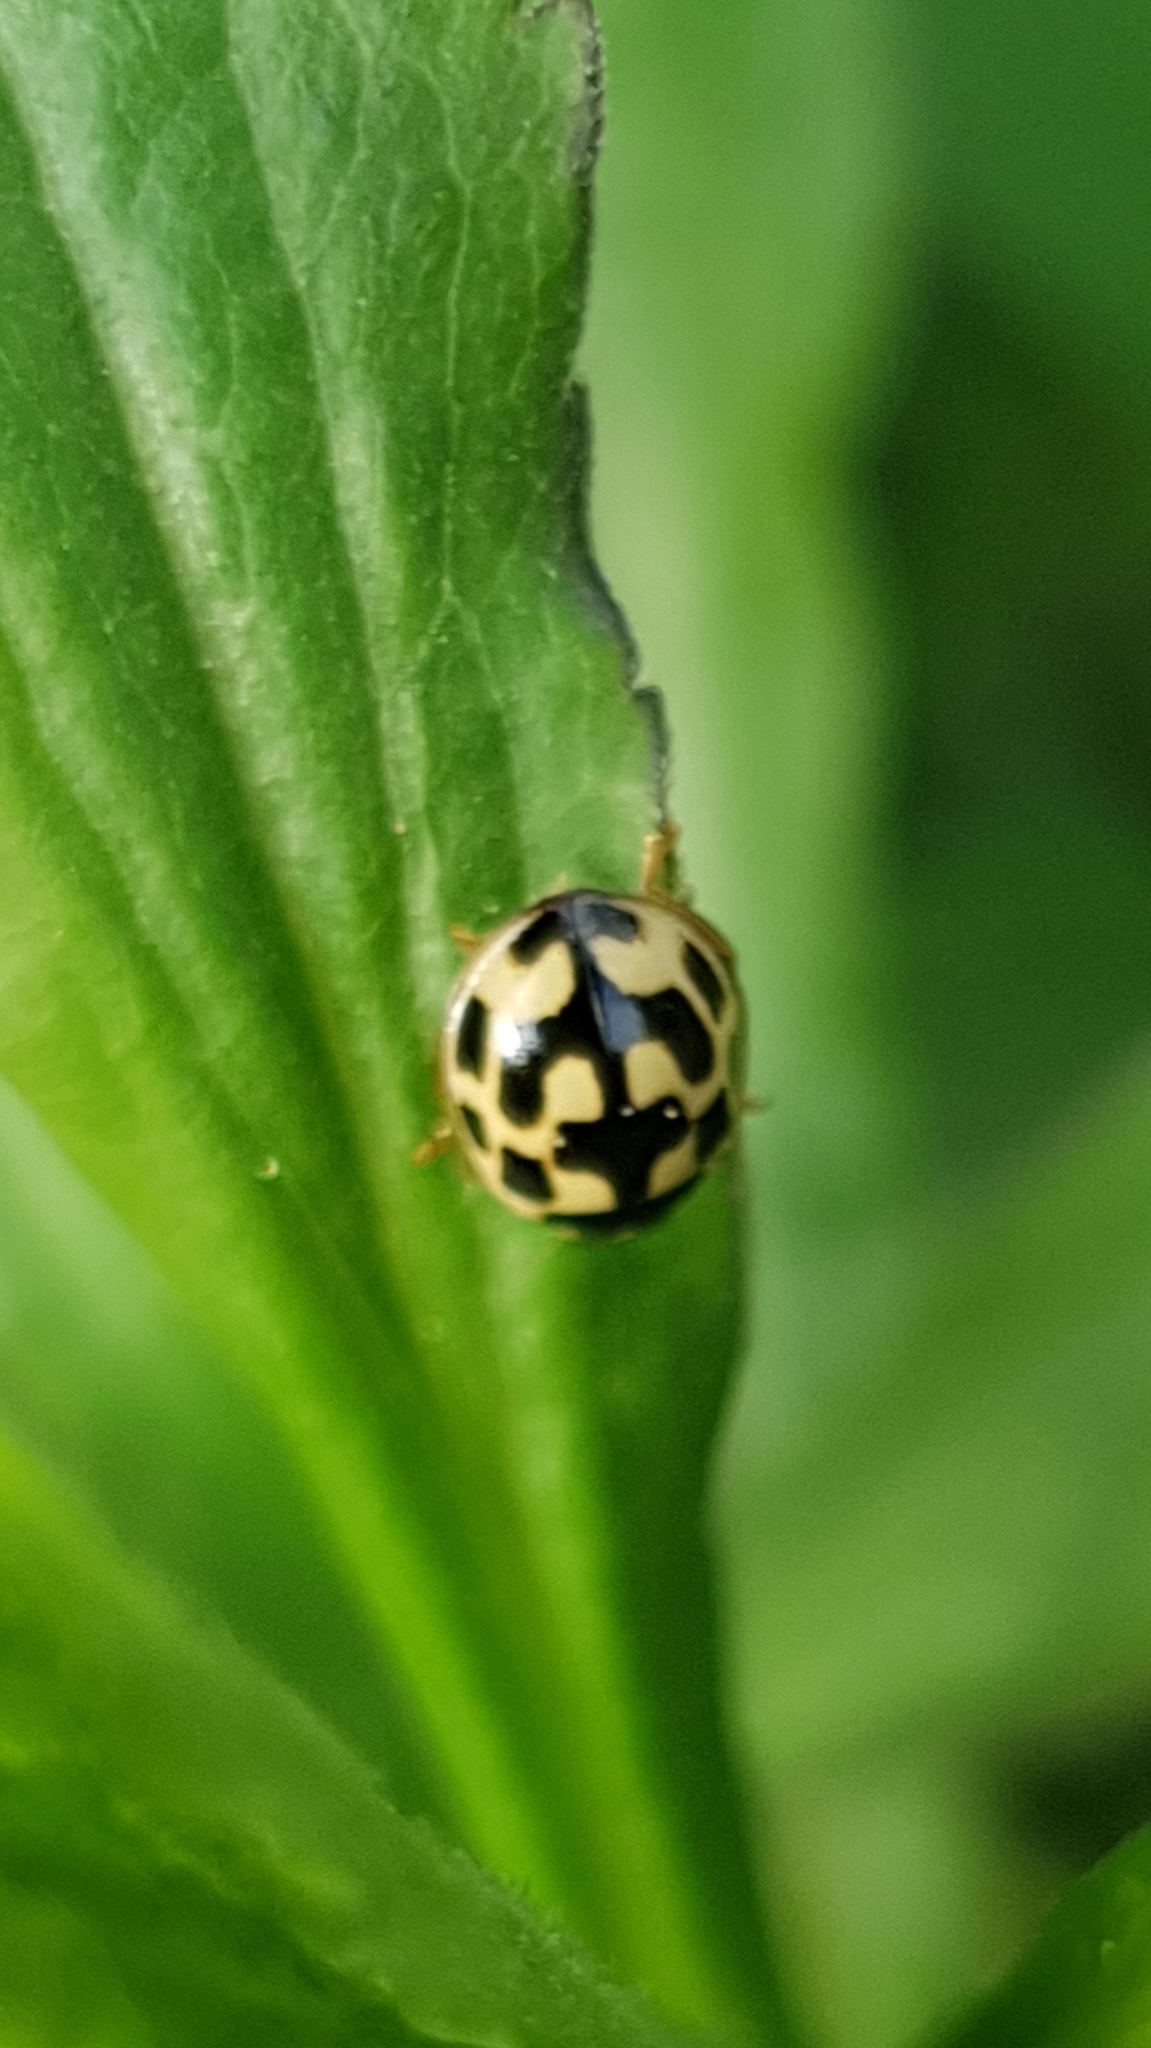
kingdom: Animalia
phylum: Arthropoda
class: Insecta
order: Coleoptera
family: Coccinellidae
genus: Propylaea
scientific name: Propylaea quatuordecimpunctata
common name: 14-spotted ladybird beetle
